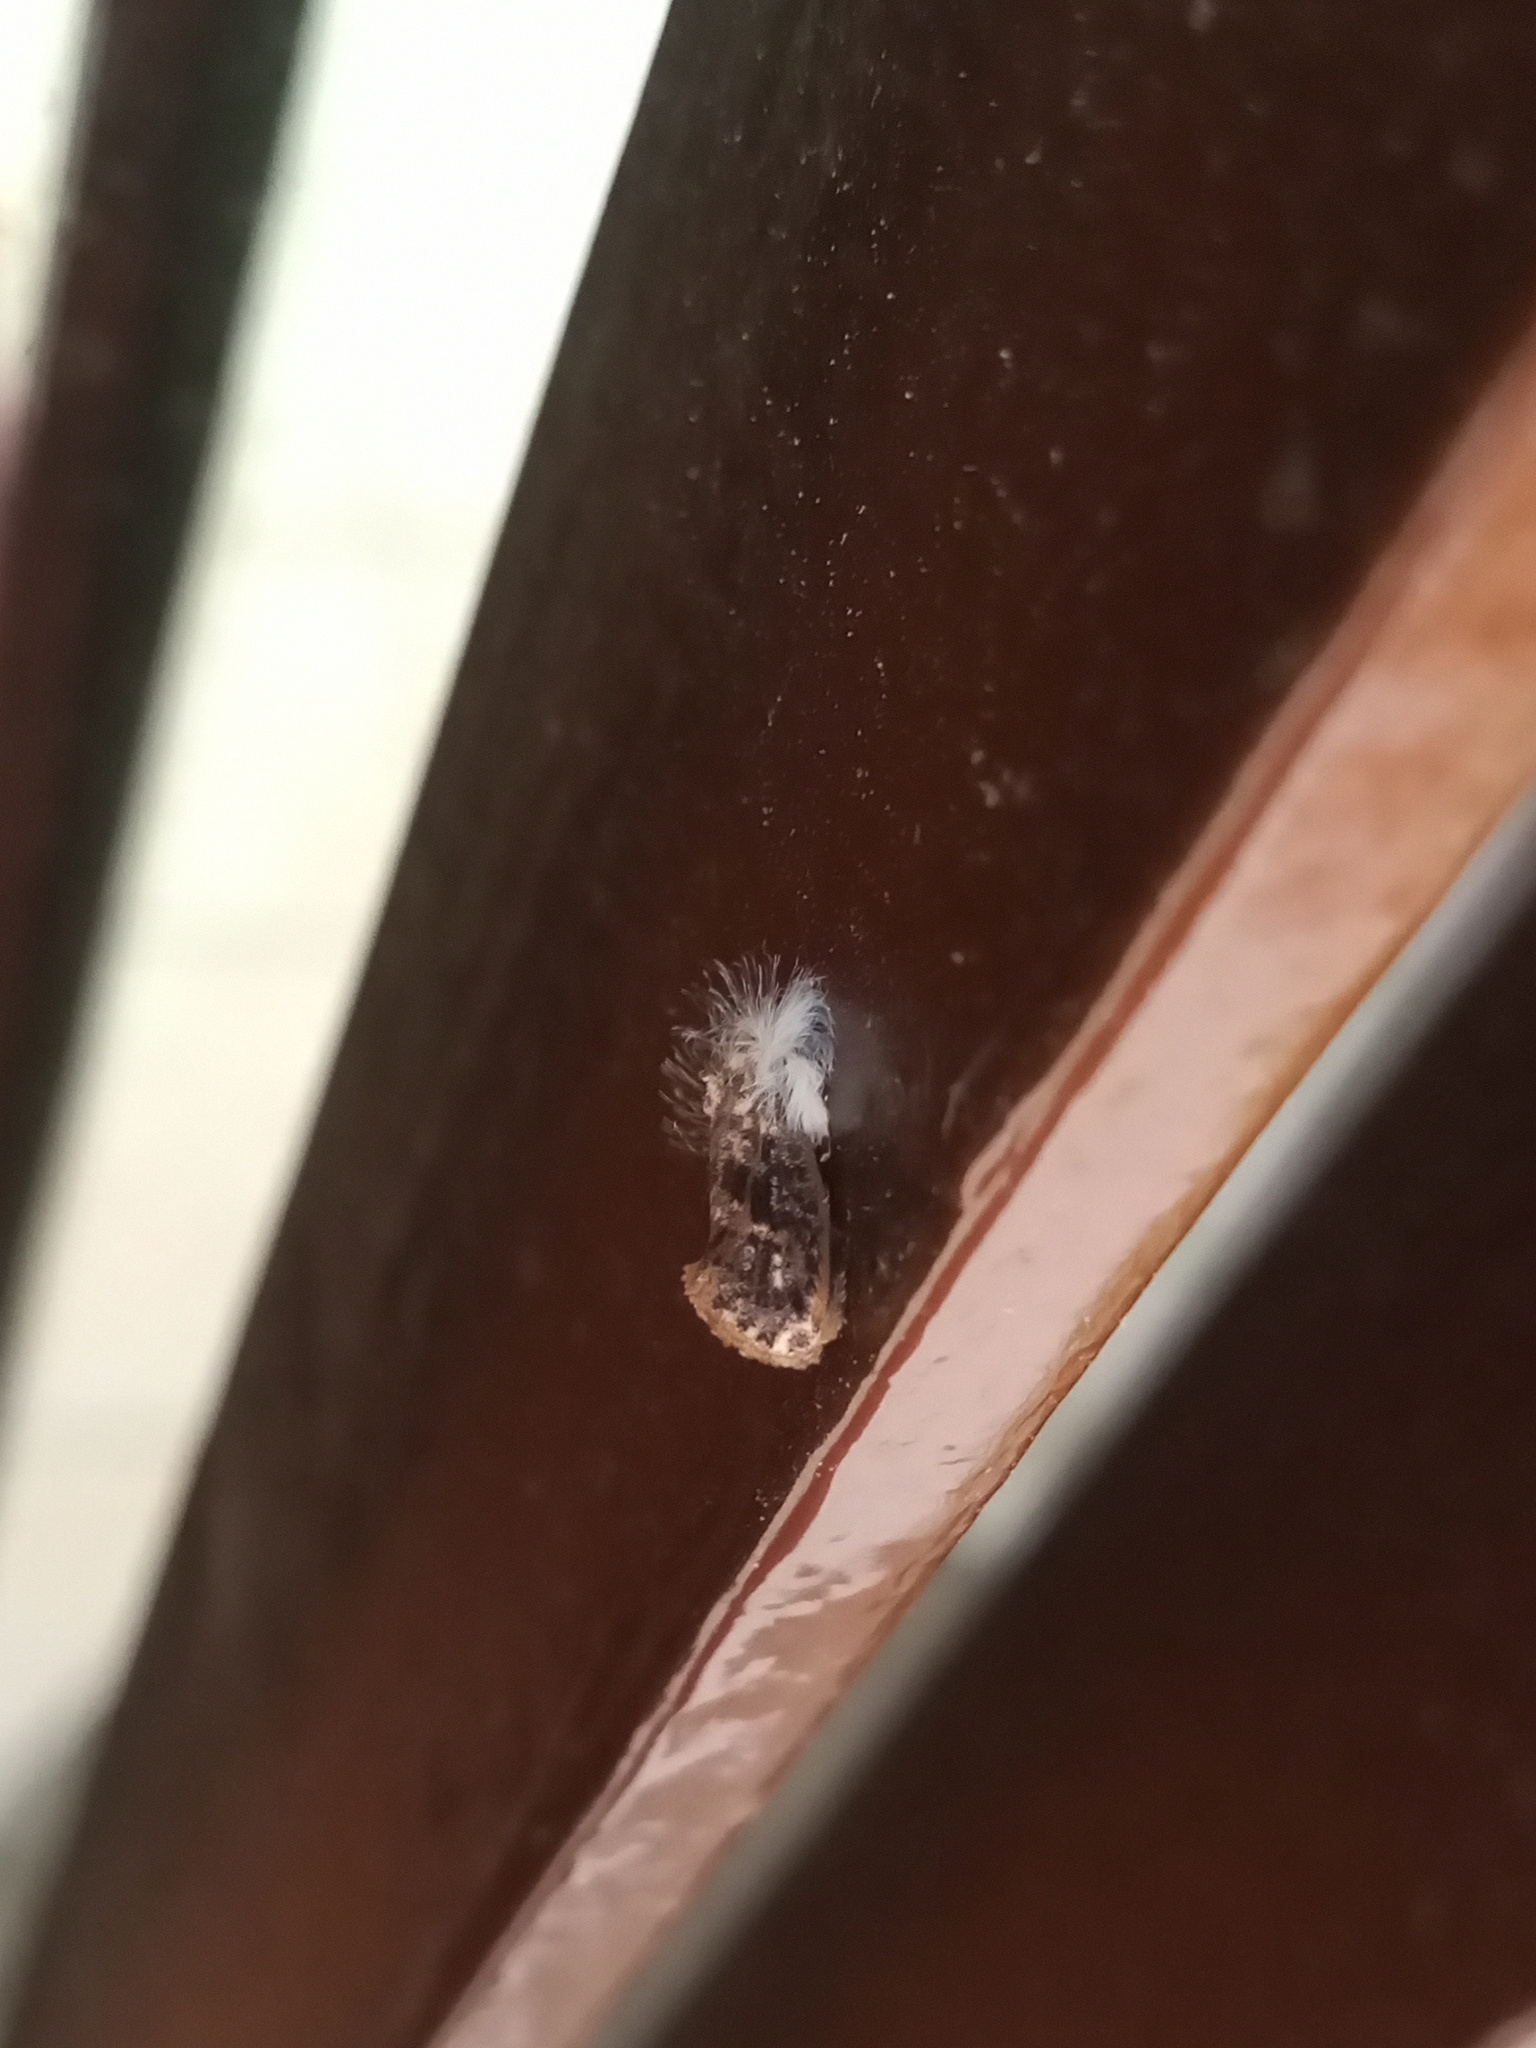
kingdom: Animalia
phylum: Arthropoda
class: Insecta
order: Lepidoptera
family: Tineidae
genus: Acrolophus
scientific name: Acrolophus mycetophagus
